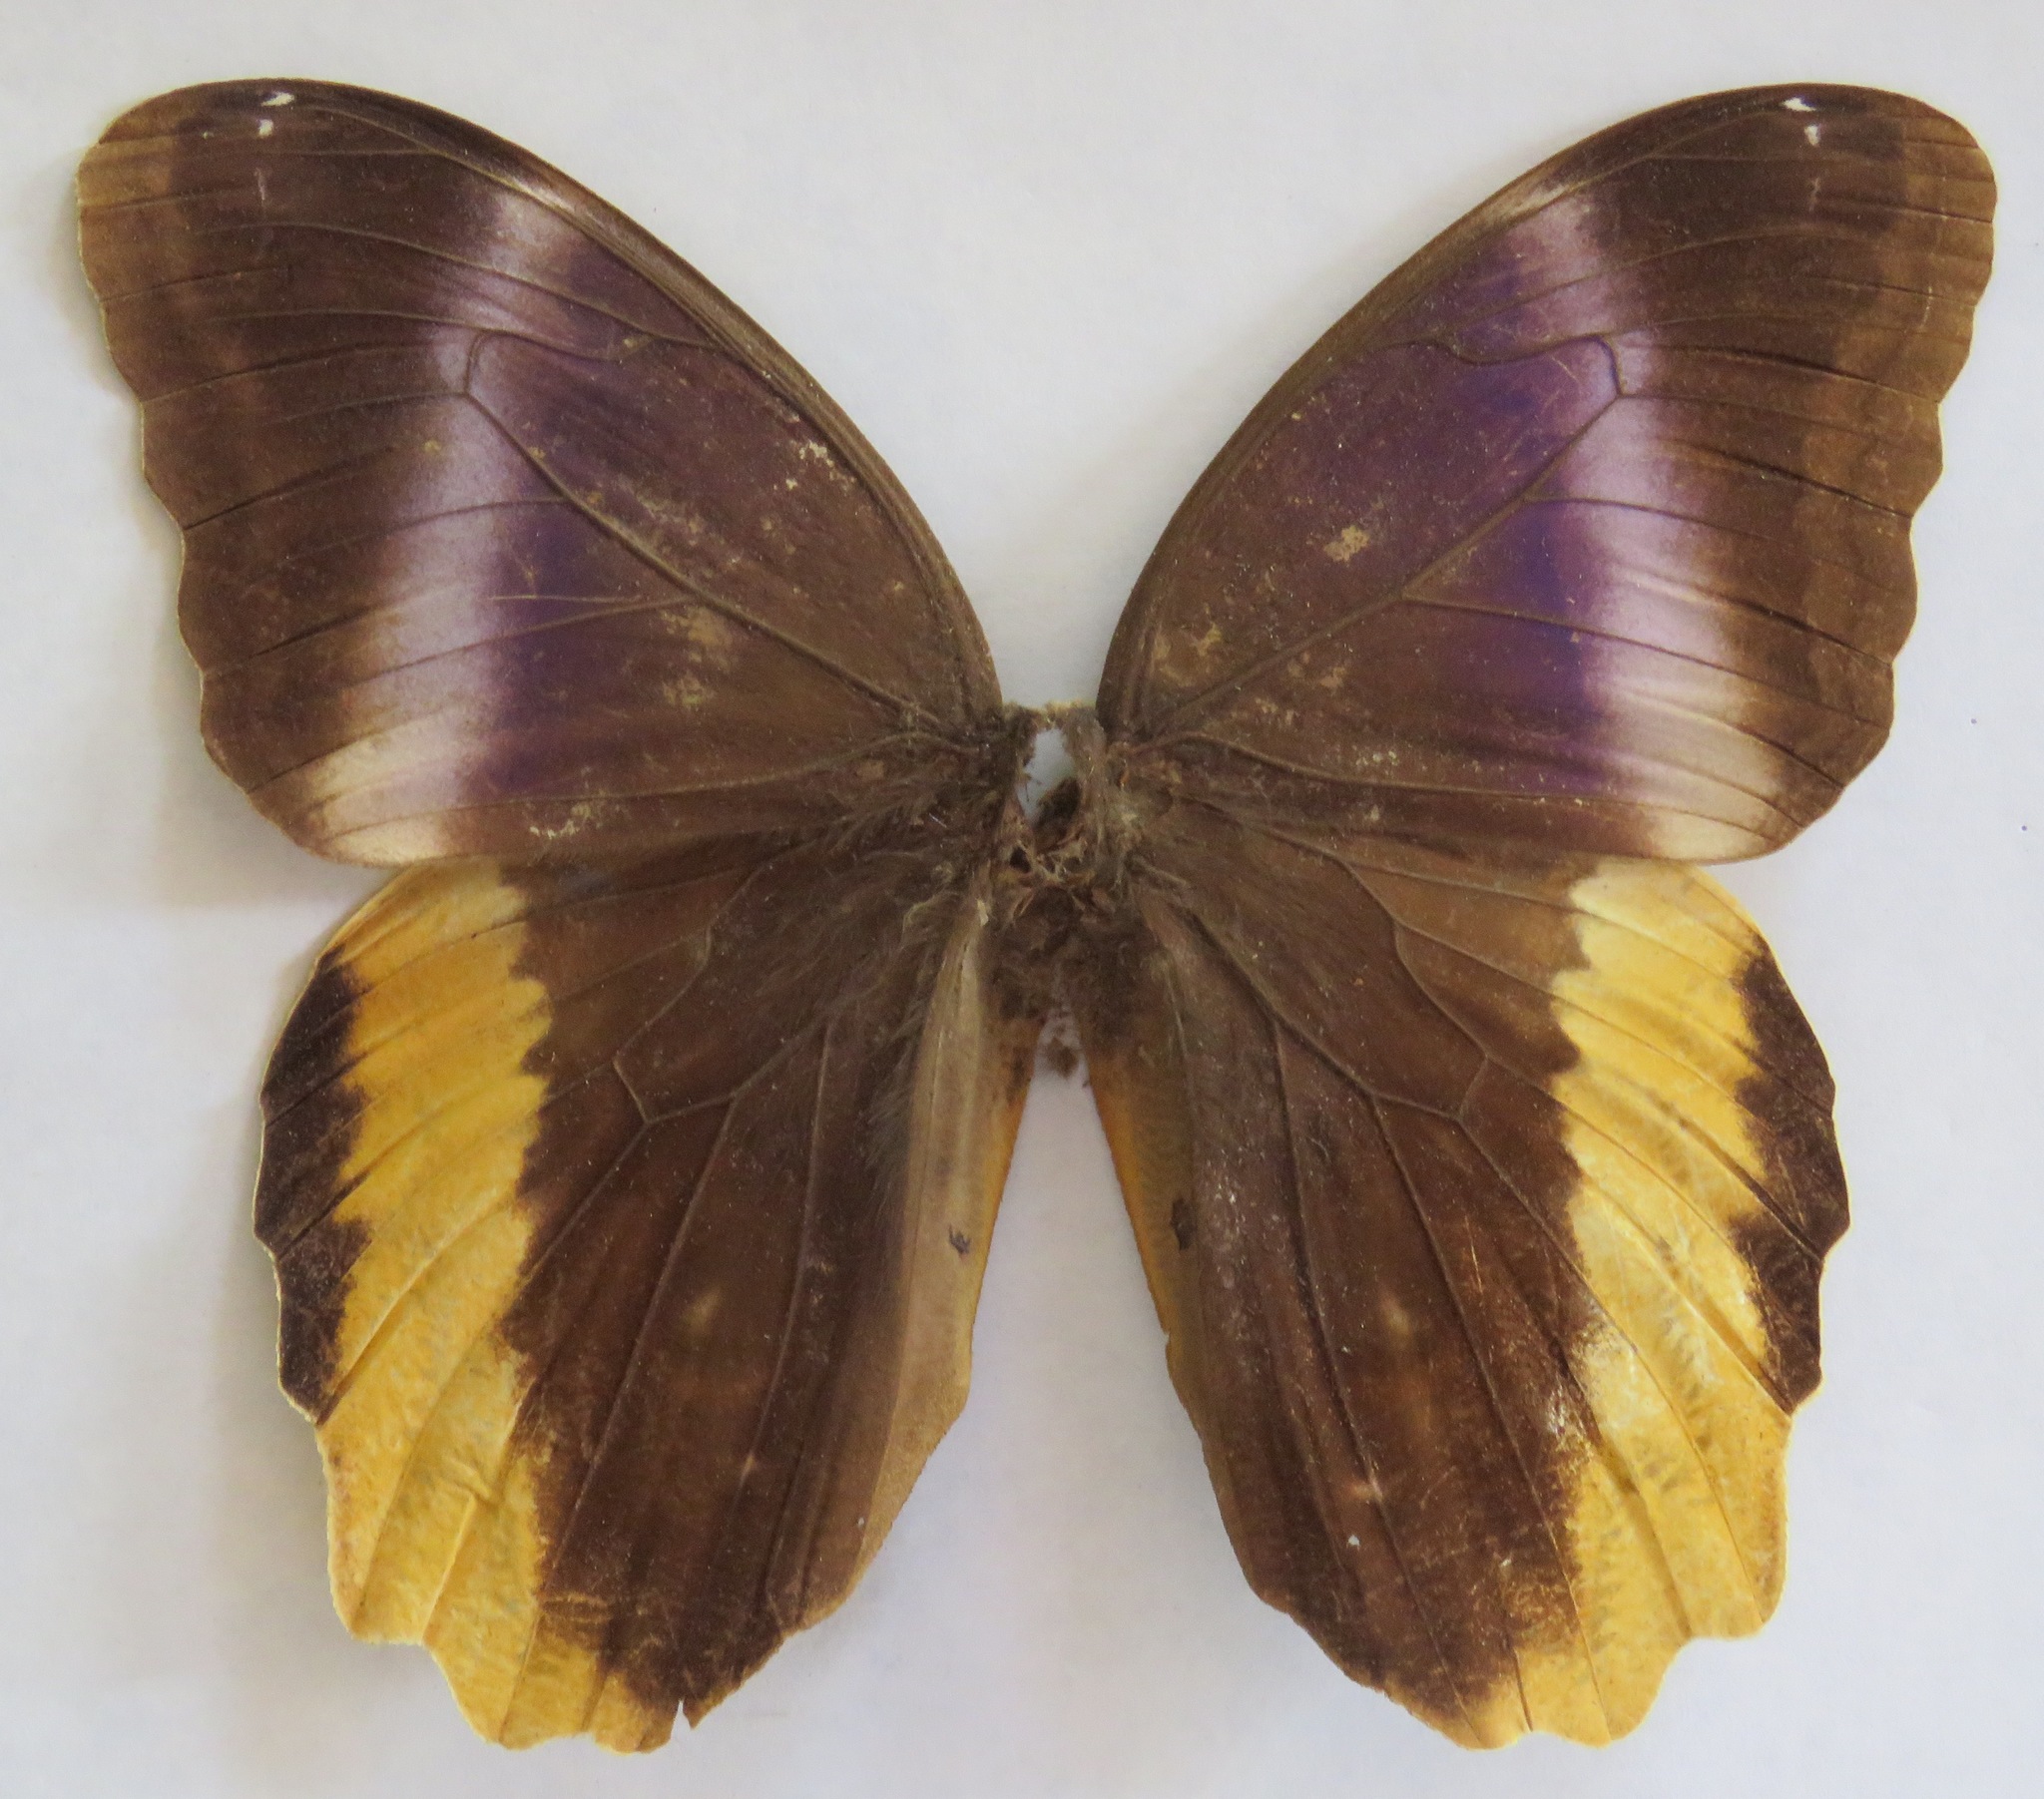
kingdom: Animalia
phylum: Arthropoda
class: Insecta
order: Lepidoptera
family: Nymphalidae
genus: Caligo
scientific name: Caligo atreus
